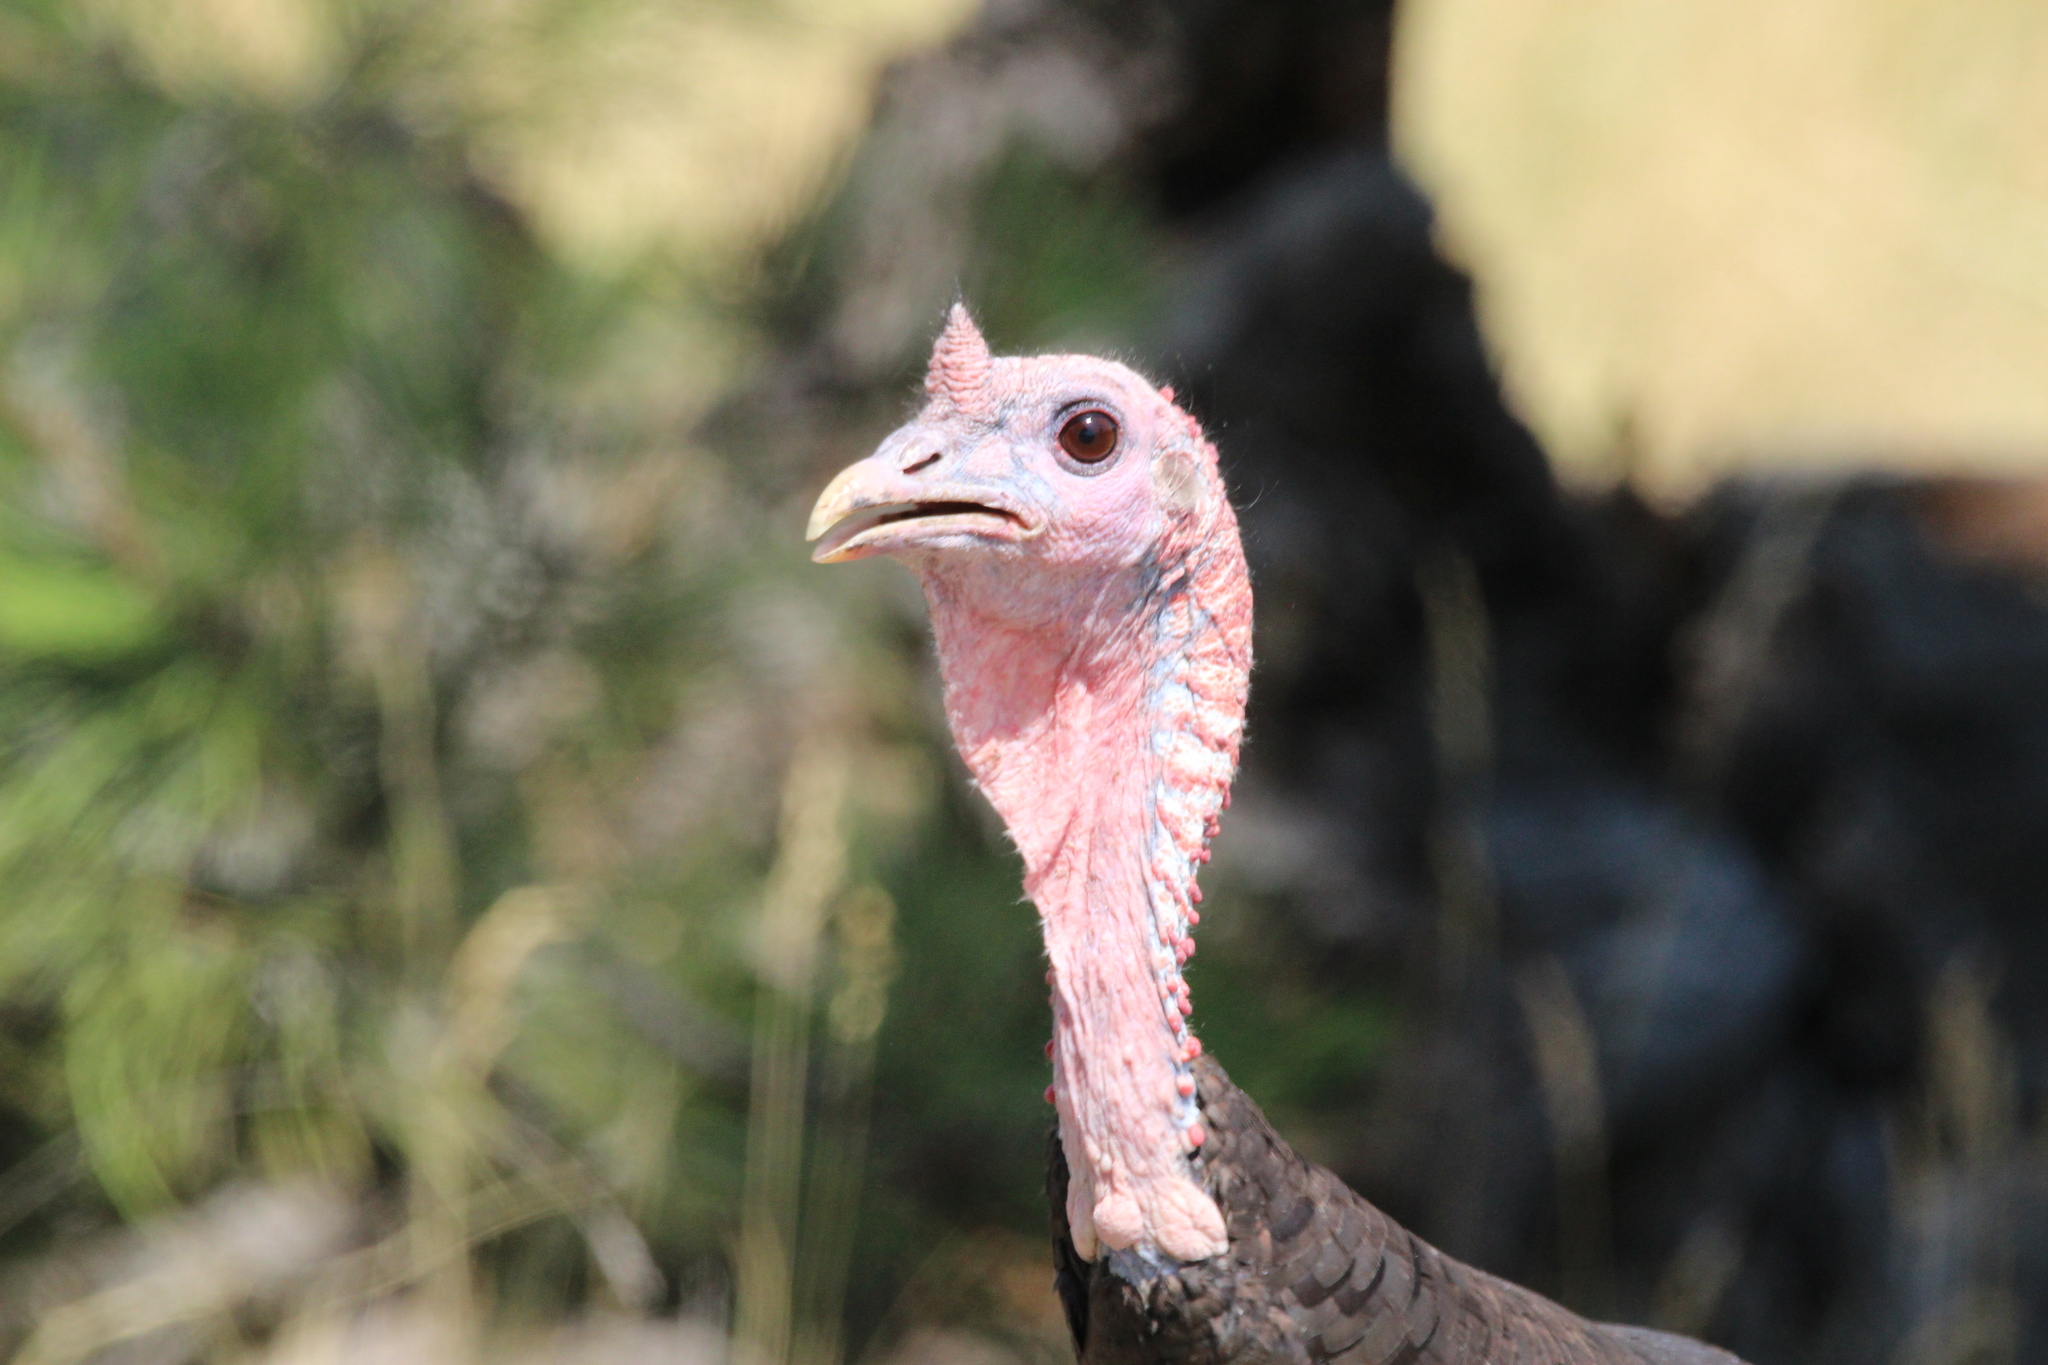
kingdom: Animalia
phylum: Chordata
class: Aves
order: Galliformes
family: Phasianidae
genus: Meleagris
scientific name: Meleagris gallopavo
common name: Wild turkey
